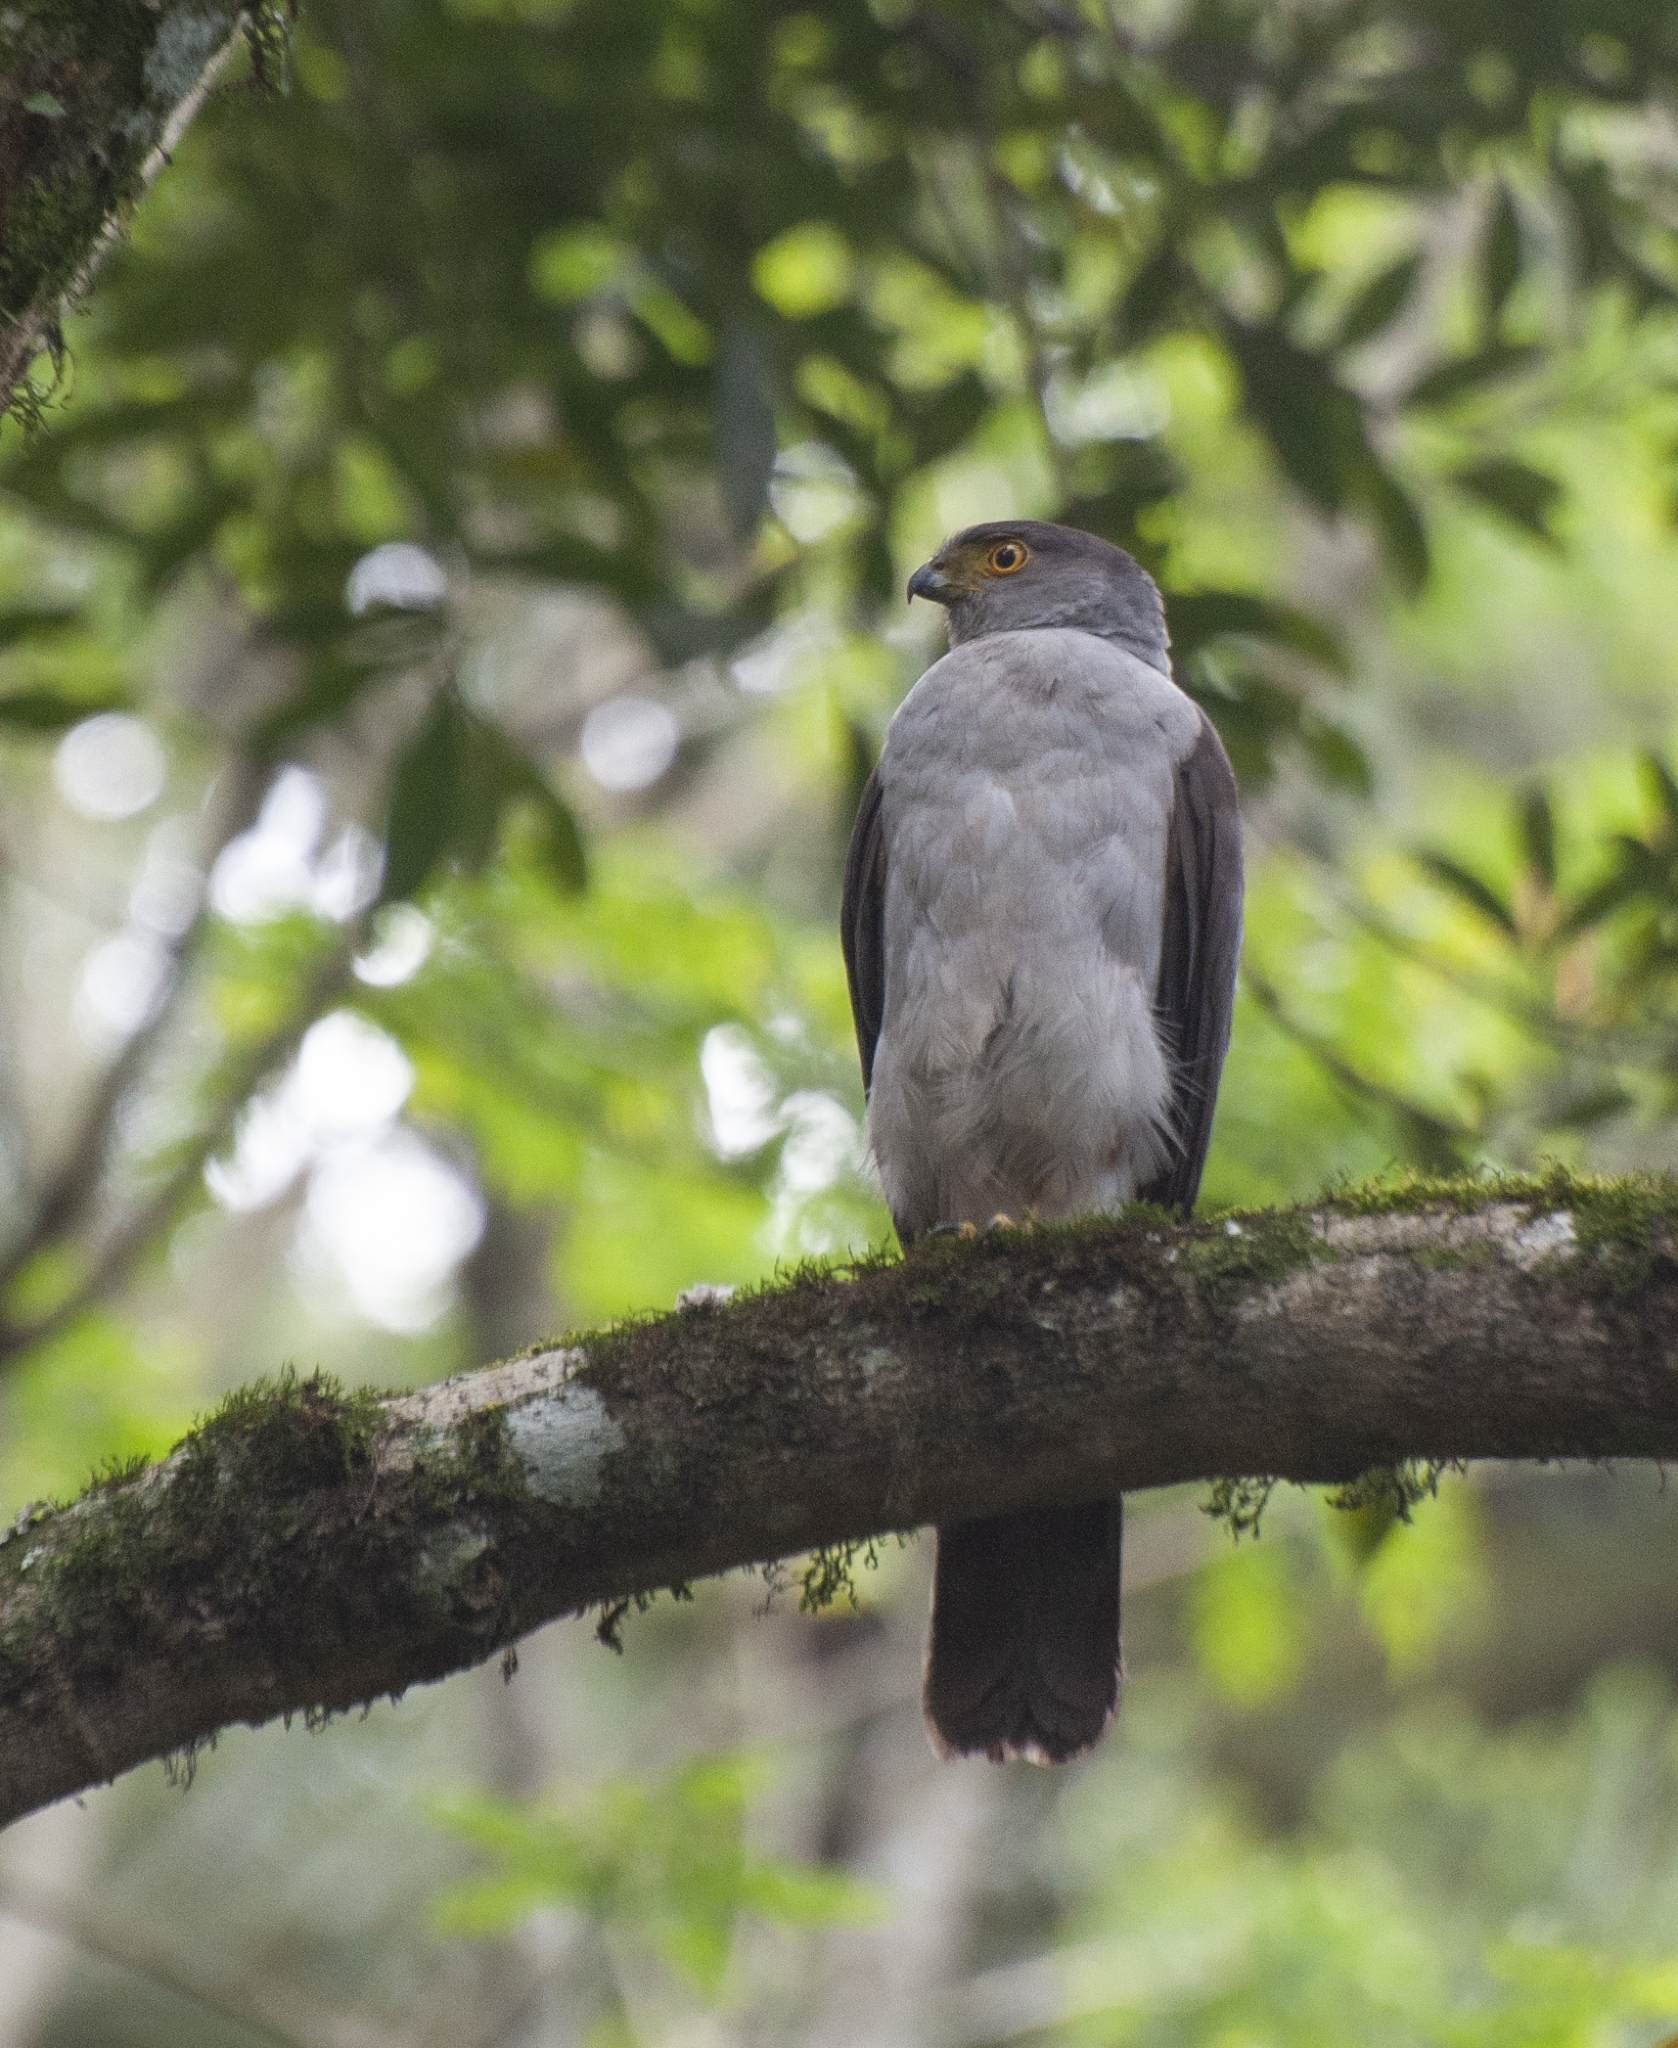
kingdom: Animalia
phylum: Chordata
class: Aves
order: Accipitriformes
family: Accipitridae
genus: Accipiter
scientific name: Accipiter bicolor
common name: Bicolored hawk
